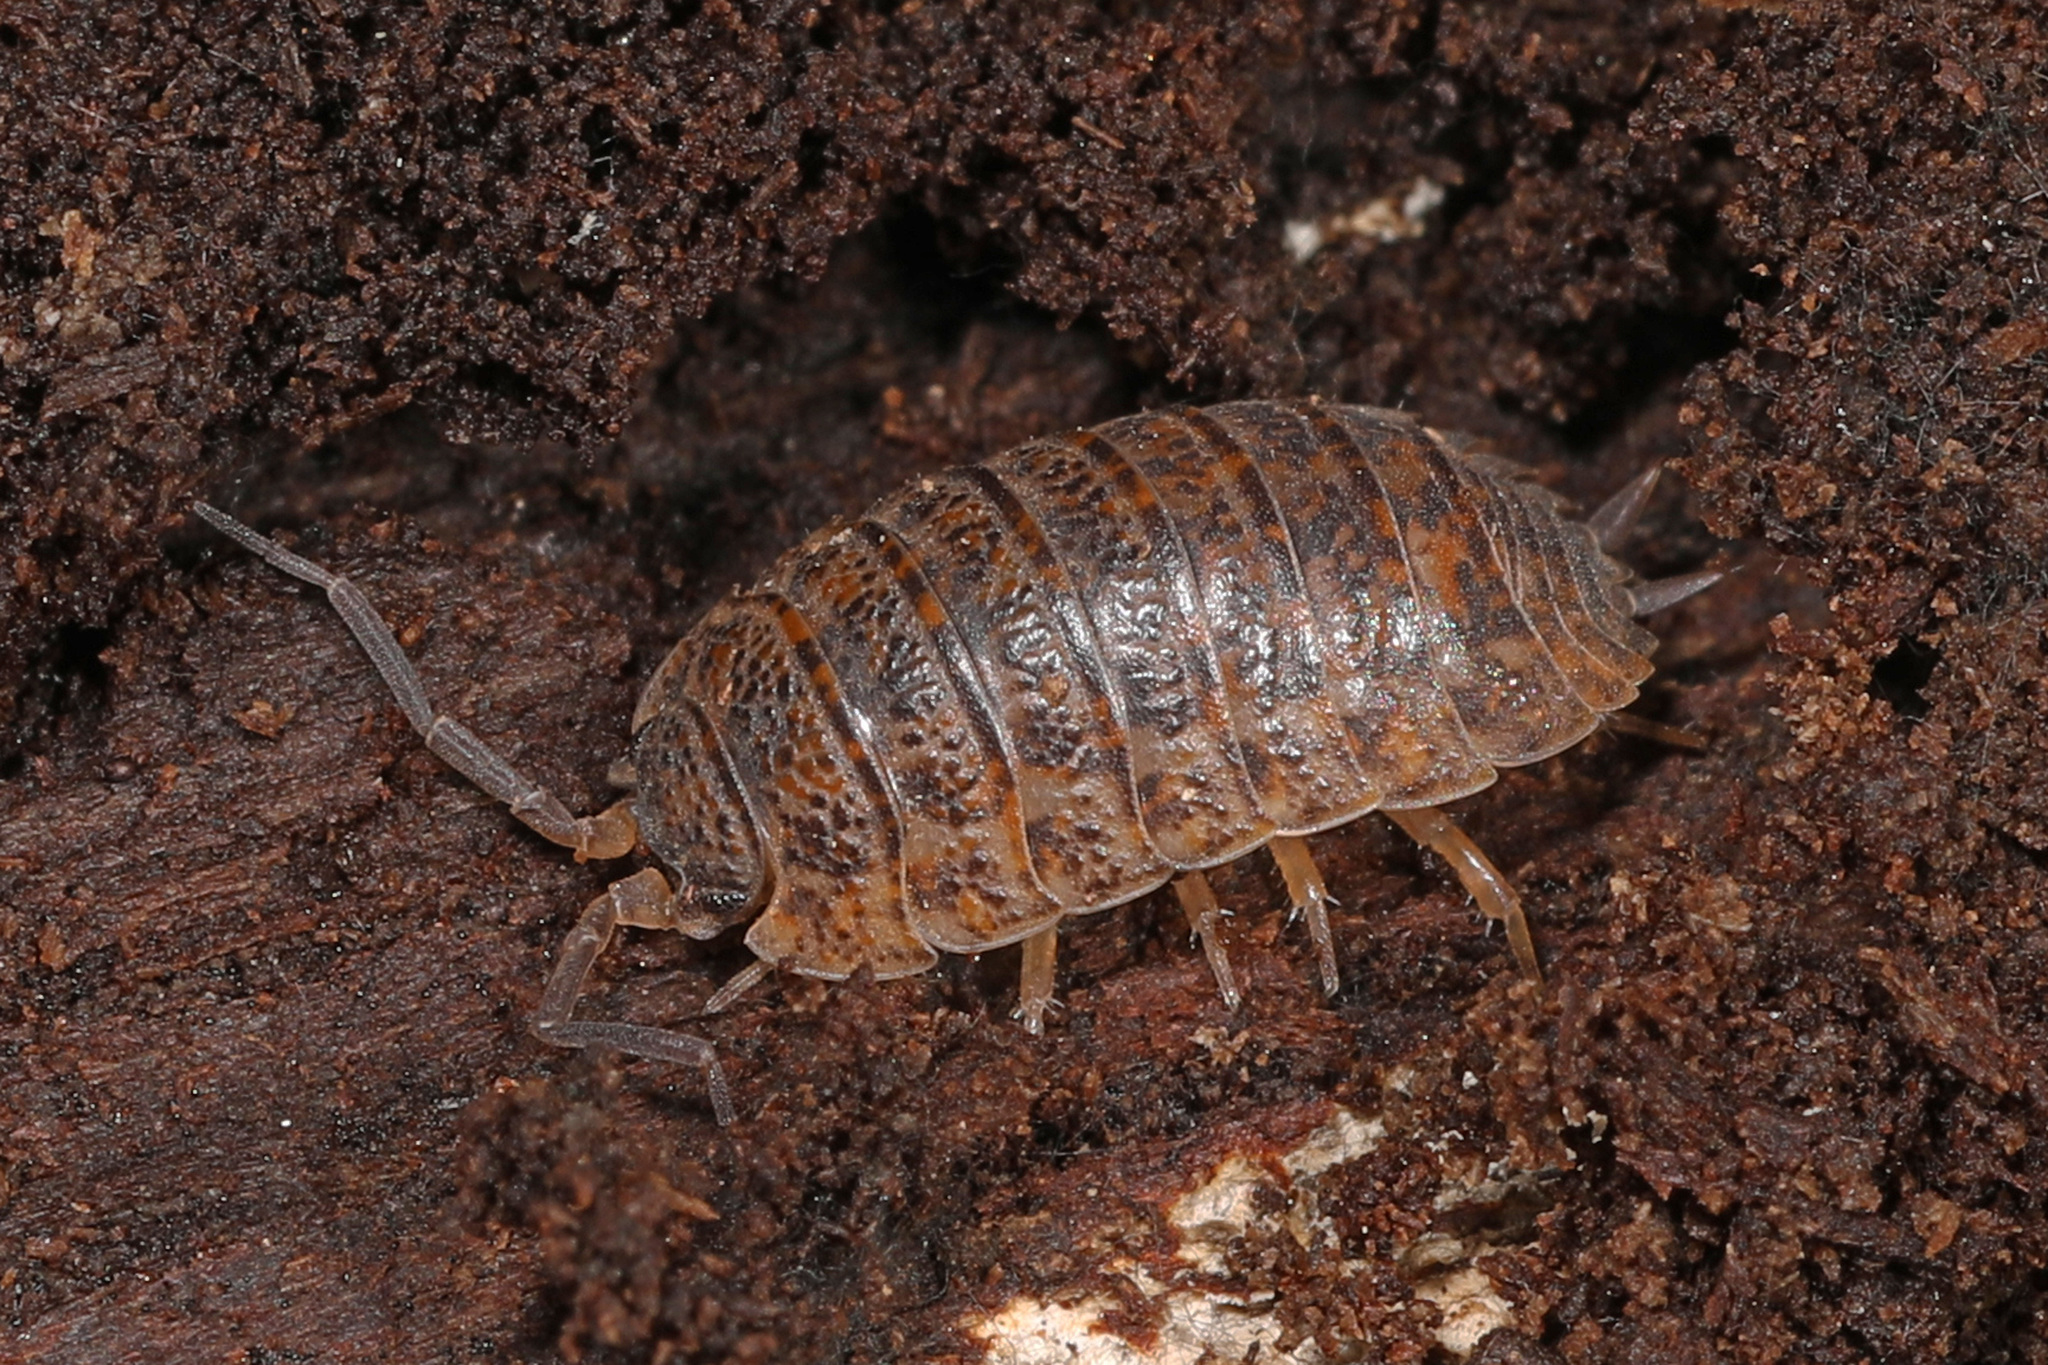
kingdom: Animalia
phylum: Arthropoda
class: Malacostraca
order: Isopoda
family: Trachelipodidae
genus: Trachelipus
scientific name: Trachelipus rathkii
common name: Isopod
